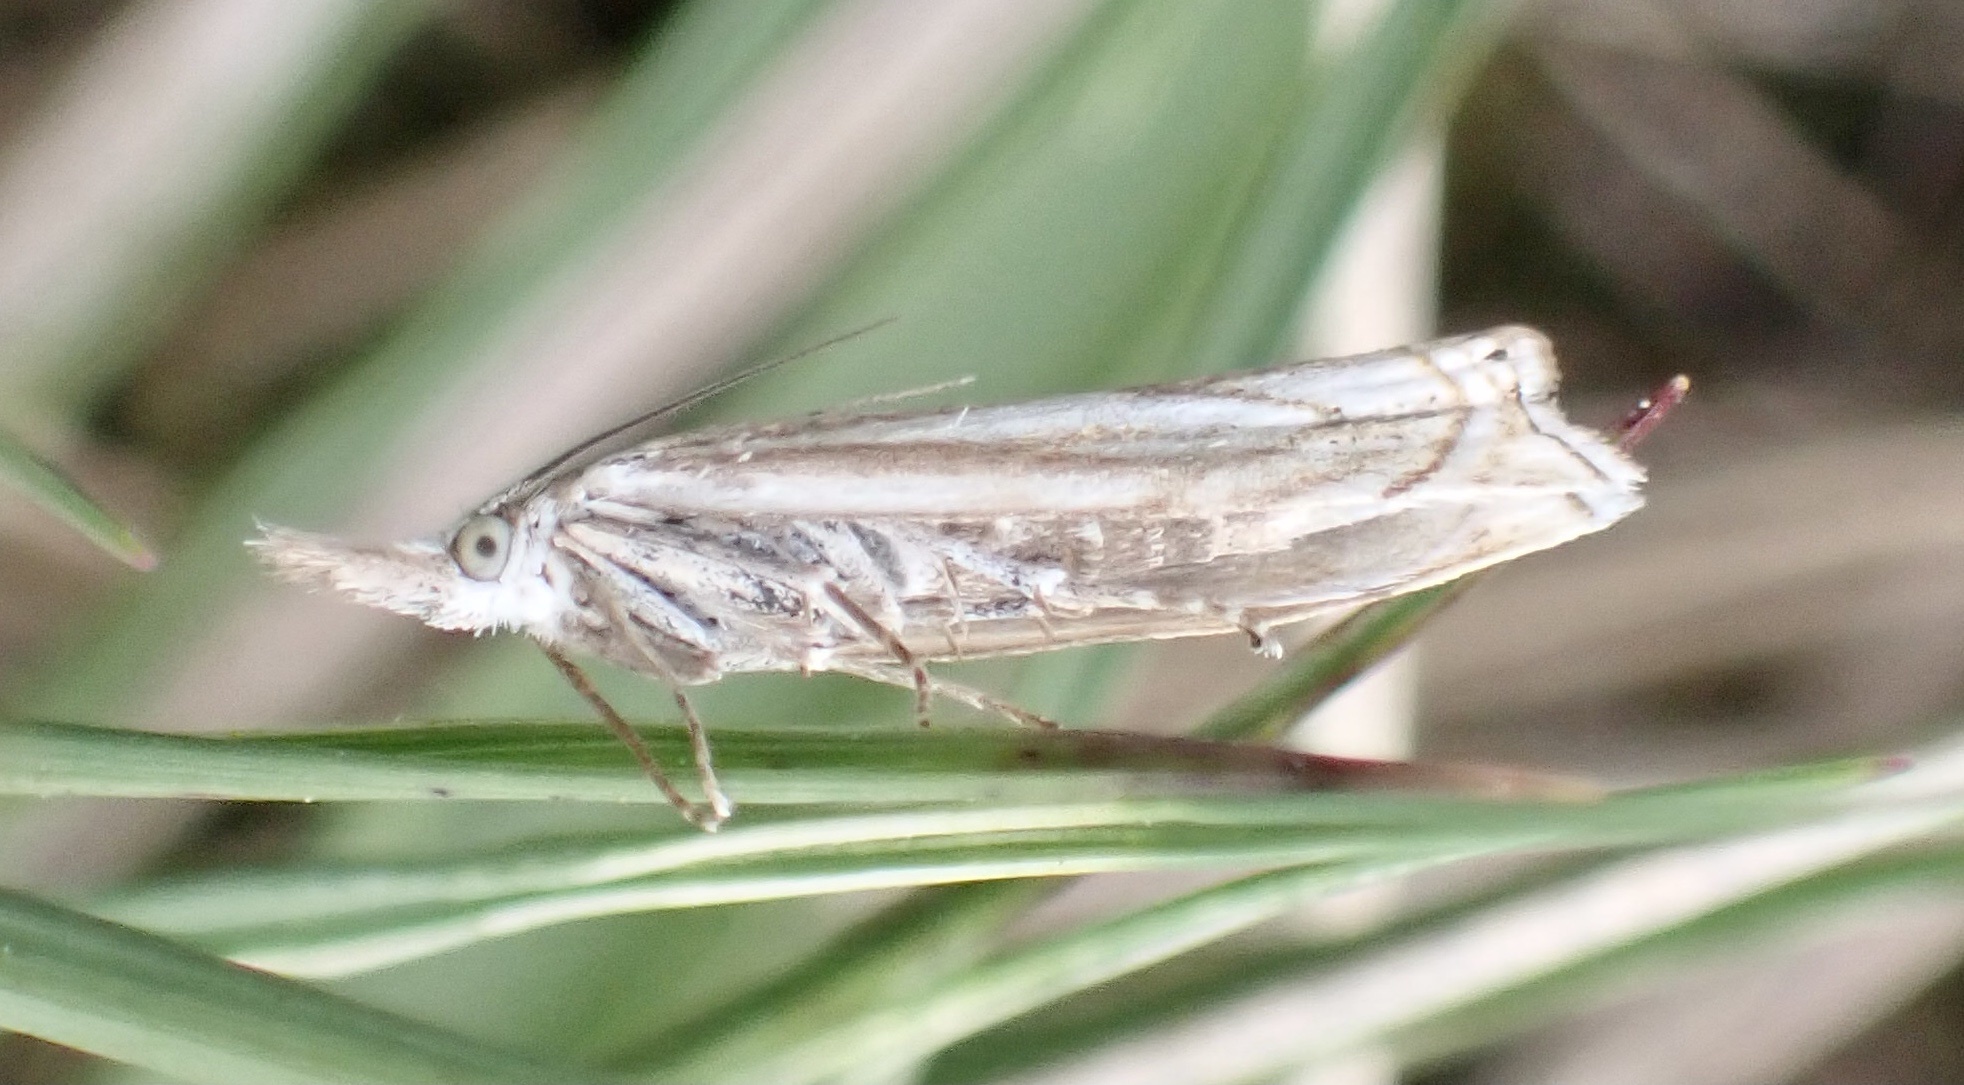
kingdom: Animalia
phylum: Arthropoda
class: Insecta
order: Lepidoptera
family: Crambidae
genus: Crambus
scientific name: Crambus nemorella
